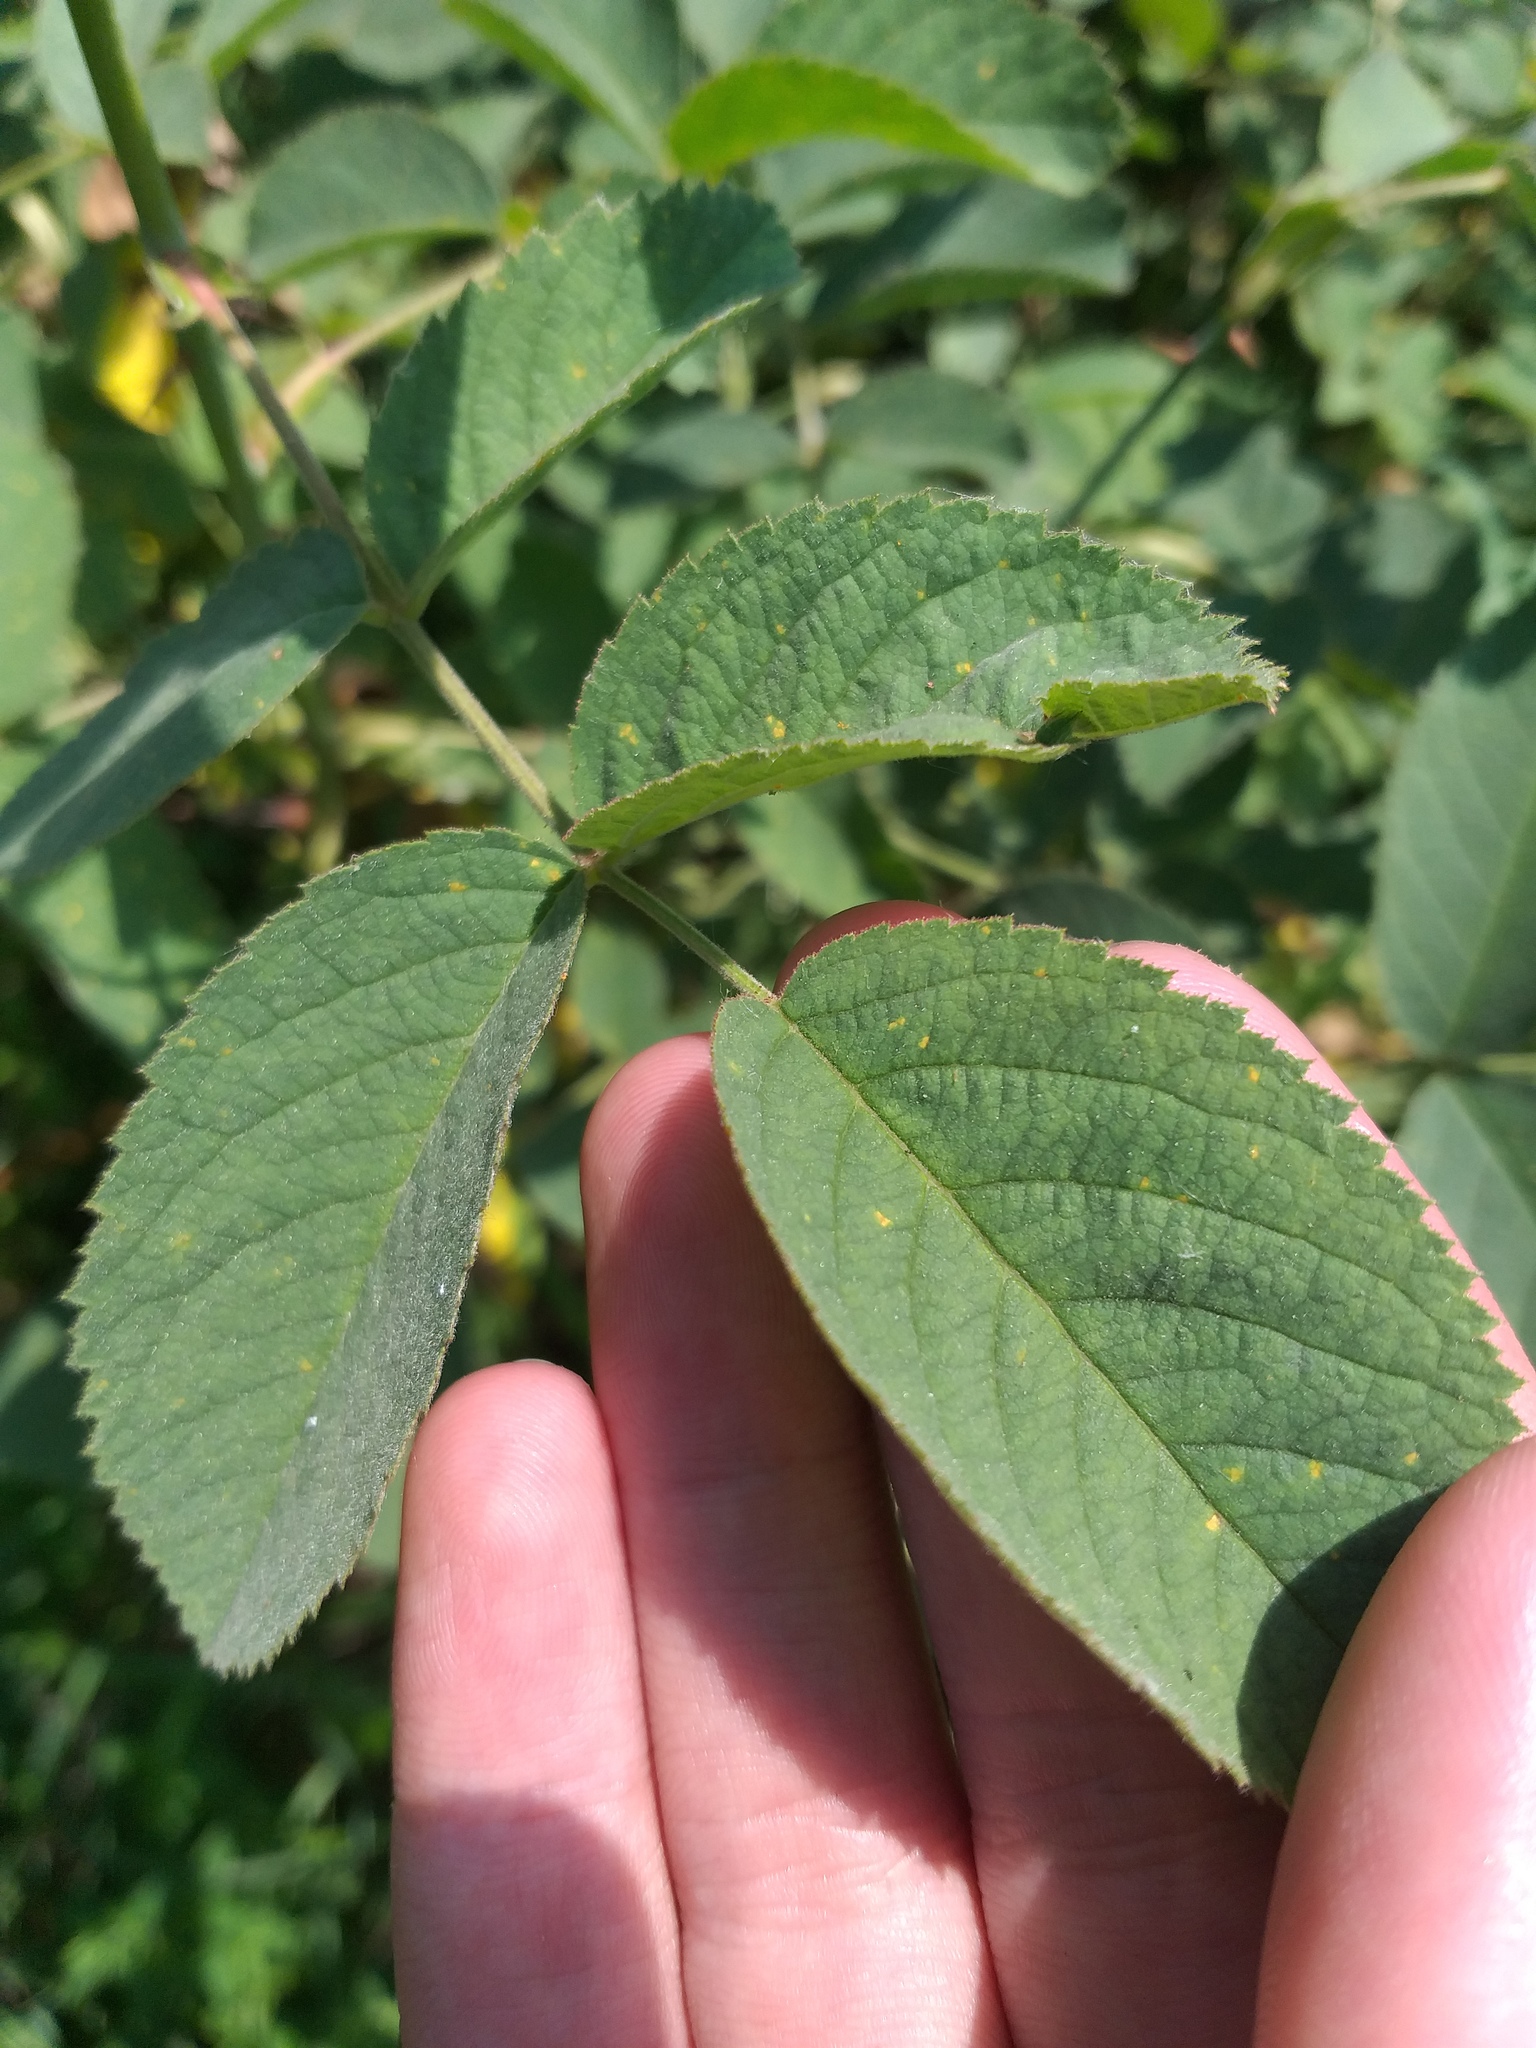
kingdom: Plantae
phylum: Tracheophyta
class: Magnoliopsida
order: Rosales
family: Rosaceae
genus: Rosa
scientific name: Rosa villosa
